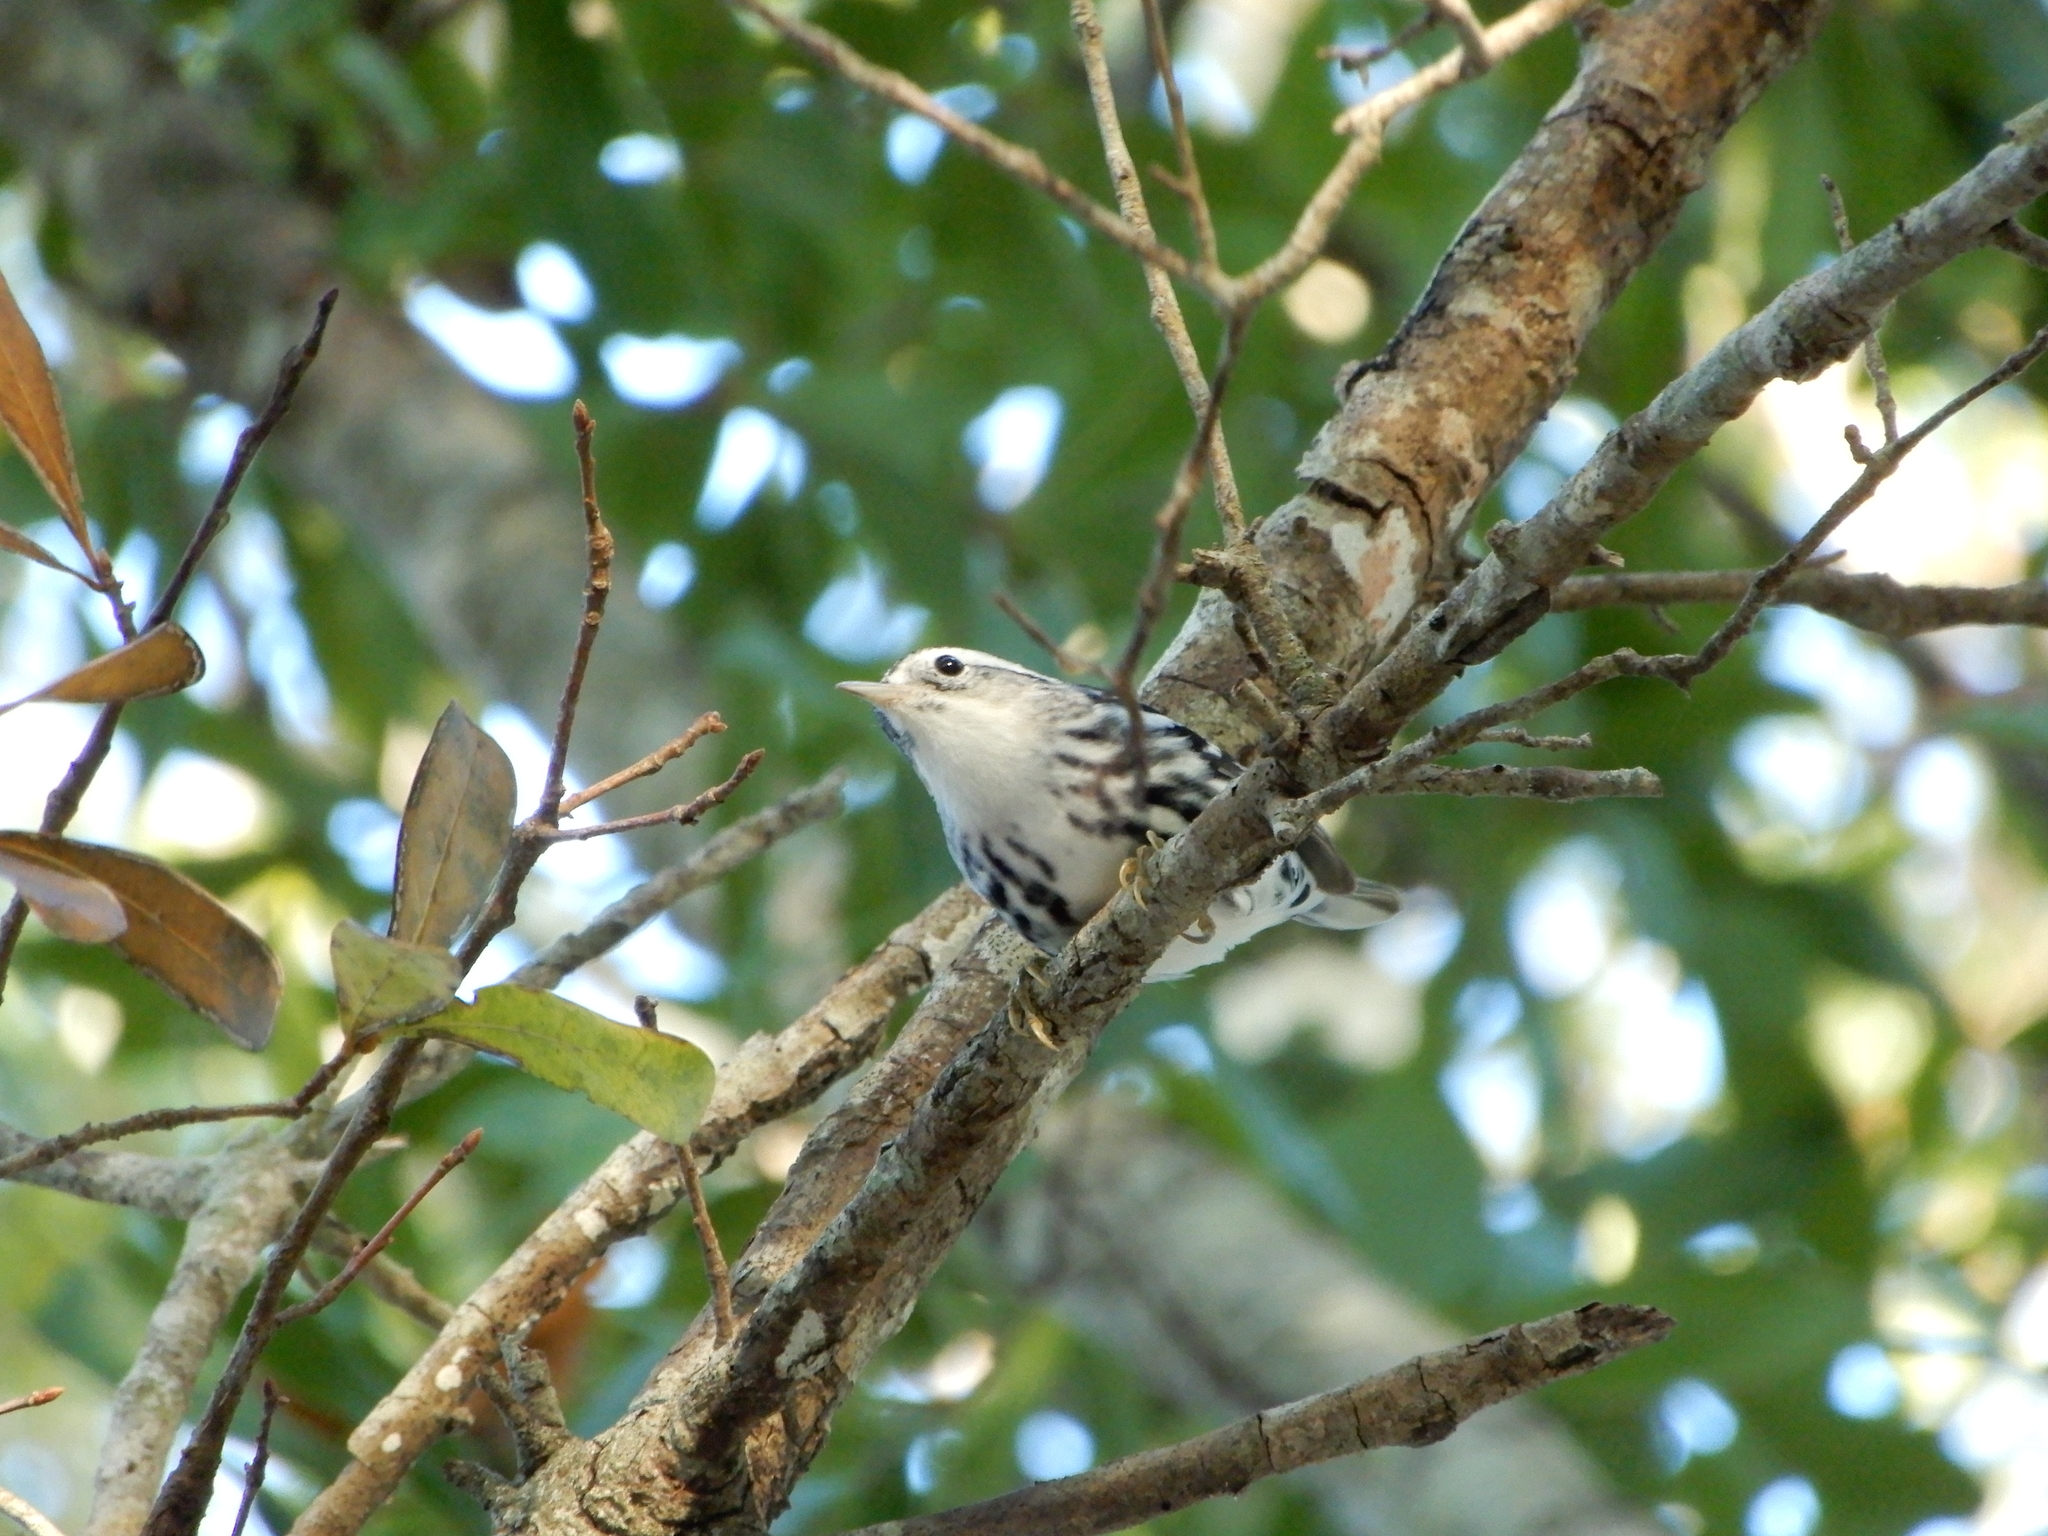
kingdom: Animalia
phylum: Chordata
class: Aves
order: Passeriformes
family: Parulidae
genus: Mniotilta
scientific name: Mniotilta varia
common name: Black-and-white warbler
